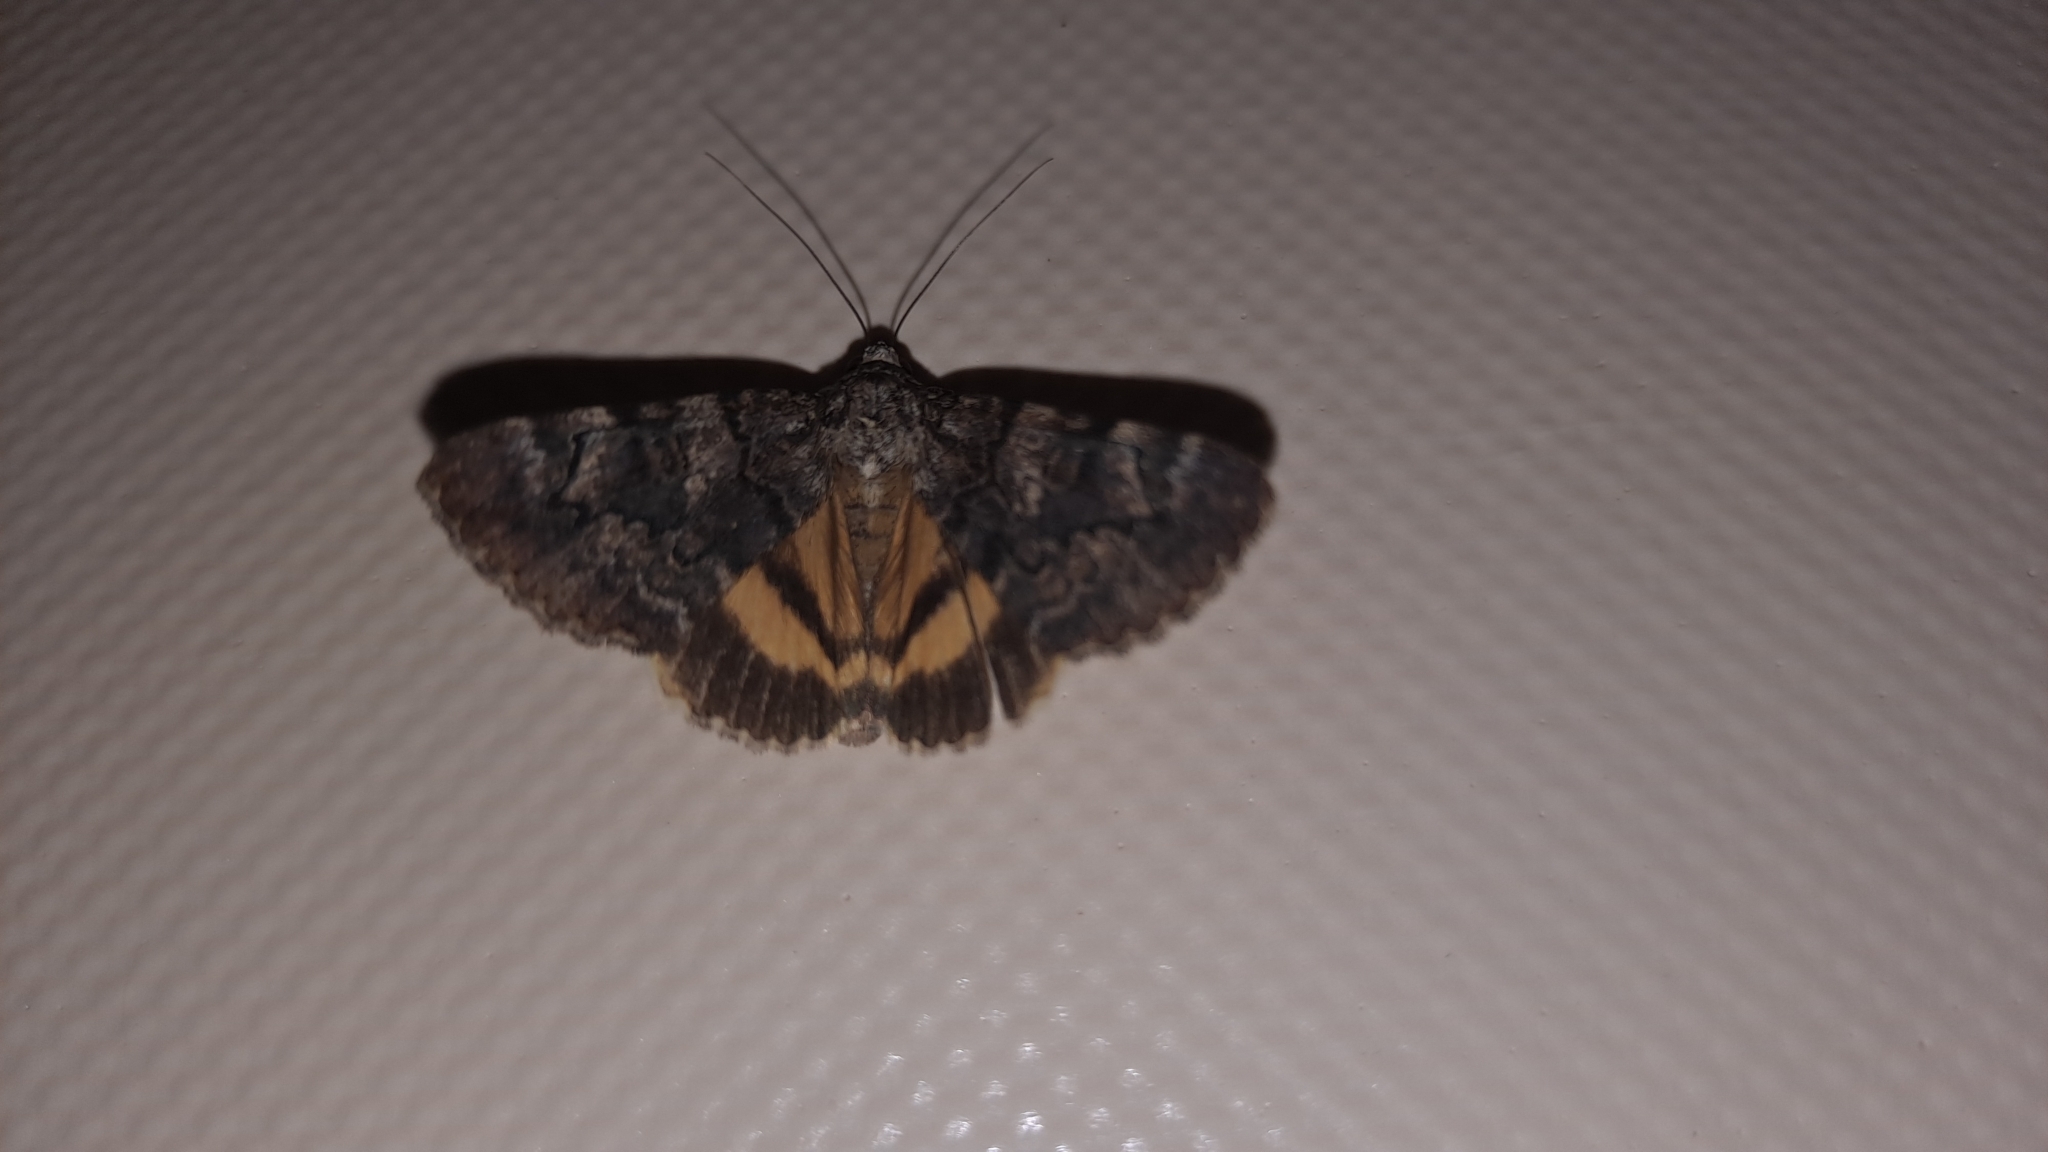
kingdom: Animalia
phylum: Arthropoda
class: Insecta
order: Lepidoptera
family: Erebidae
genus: Catocala
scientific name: Catocala nymphagoga
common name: Oak yellow underwing
